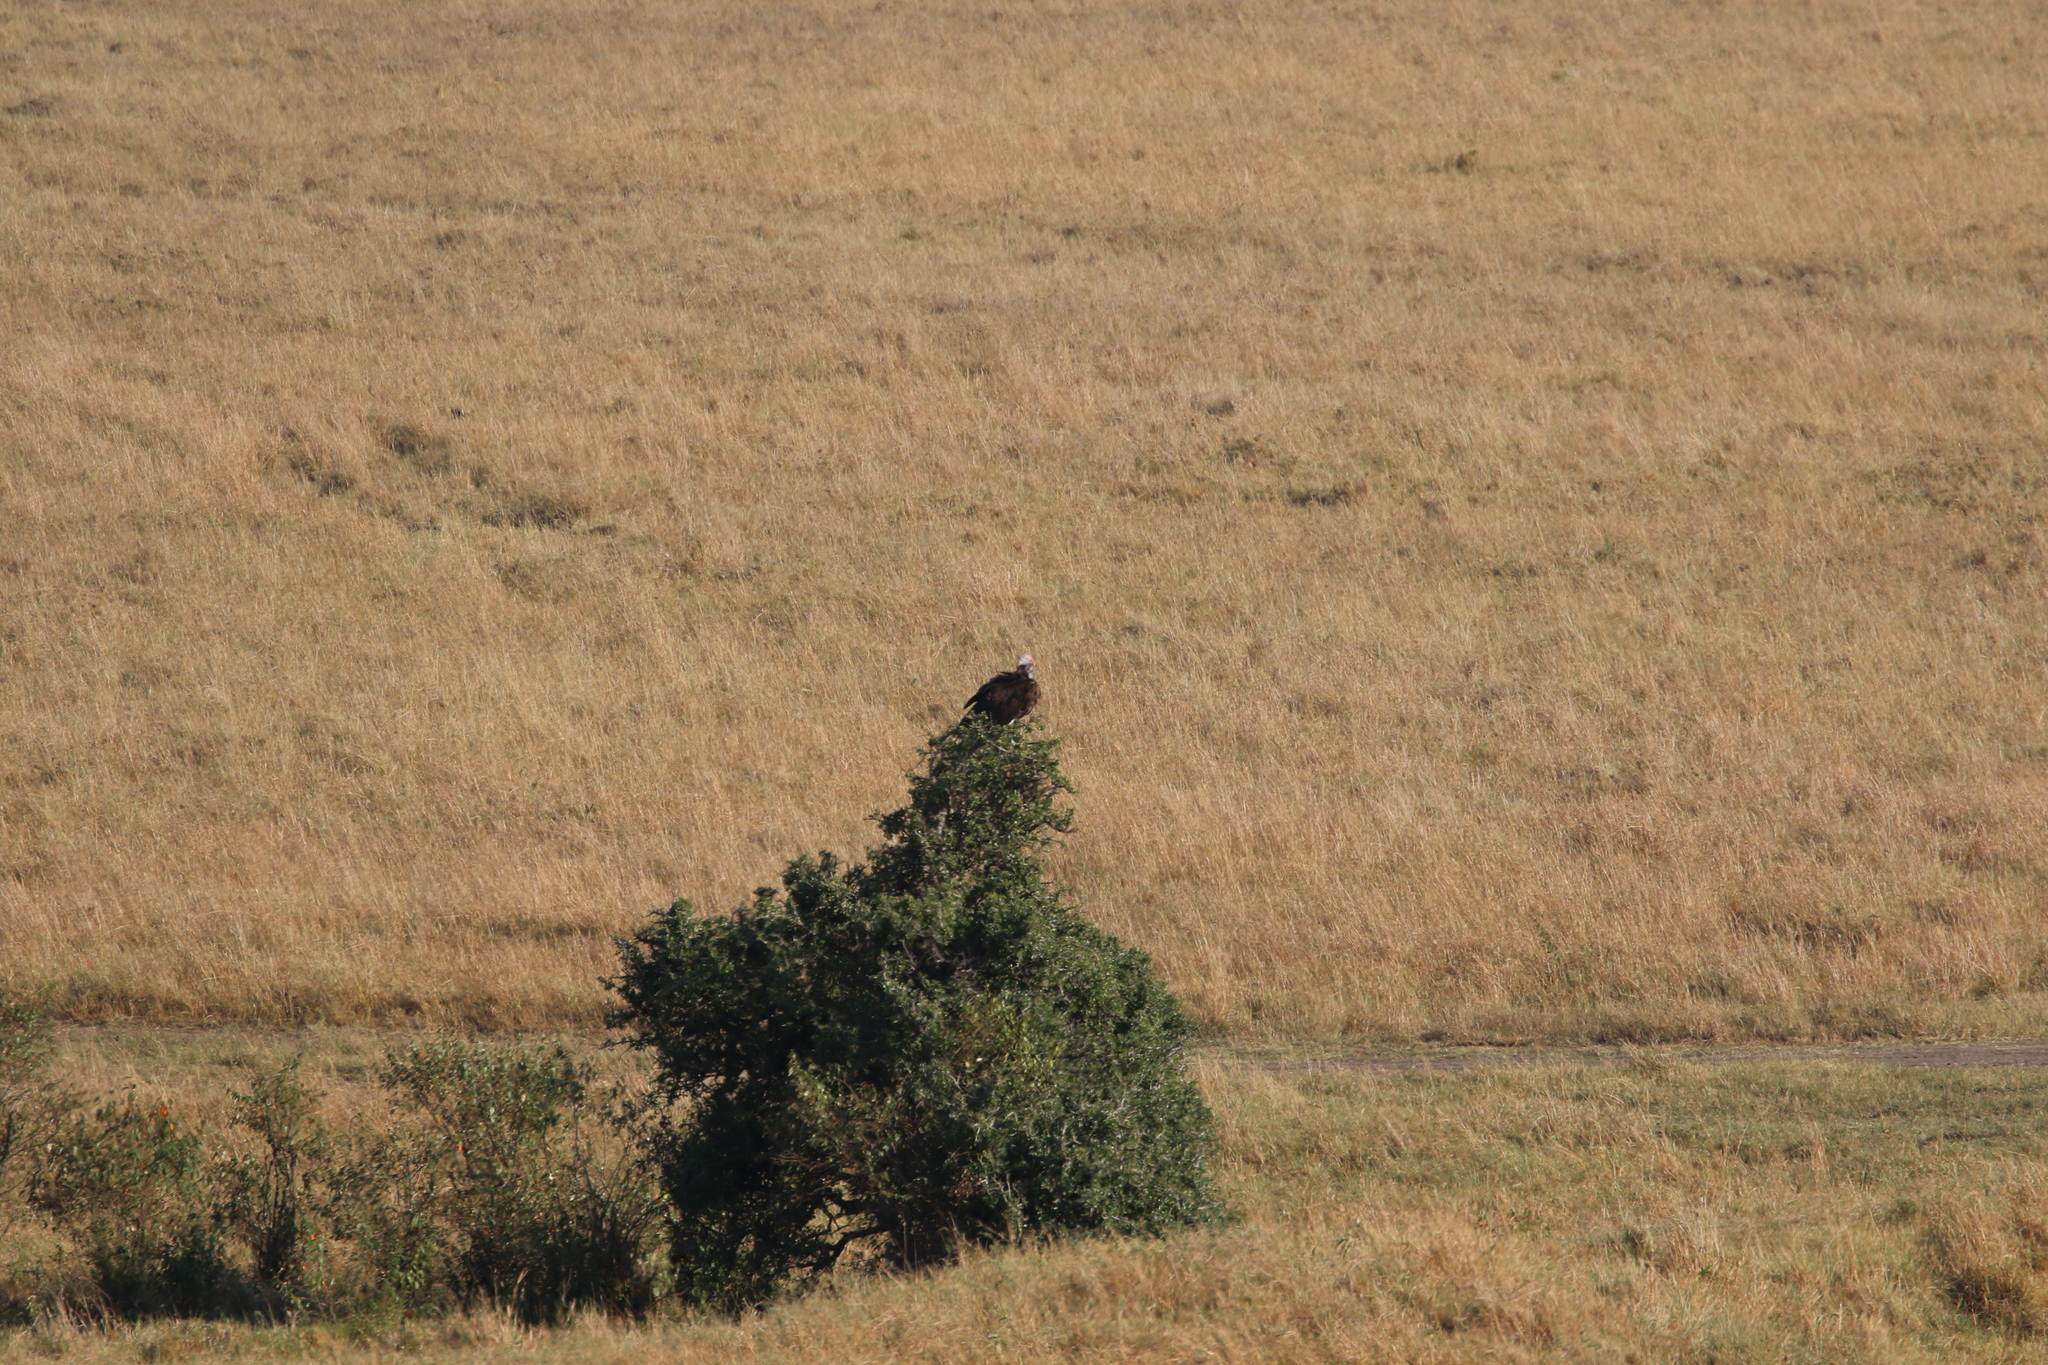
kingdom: Animalia
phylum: Chordata
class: Aves
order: Accipitriformes
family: Accipitridae
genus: Torgos
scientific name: Torgos tracheliotos
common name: Lappet-faced vulture
